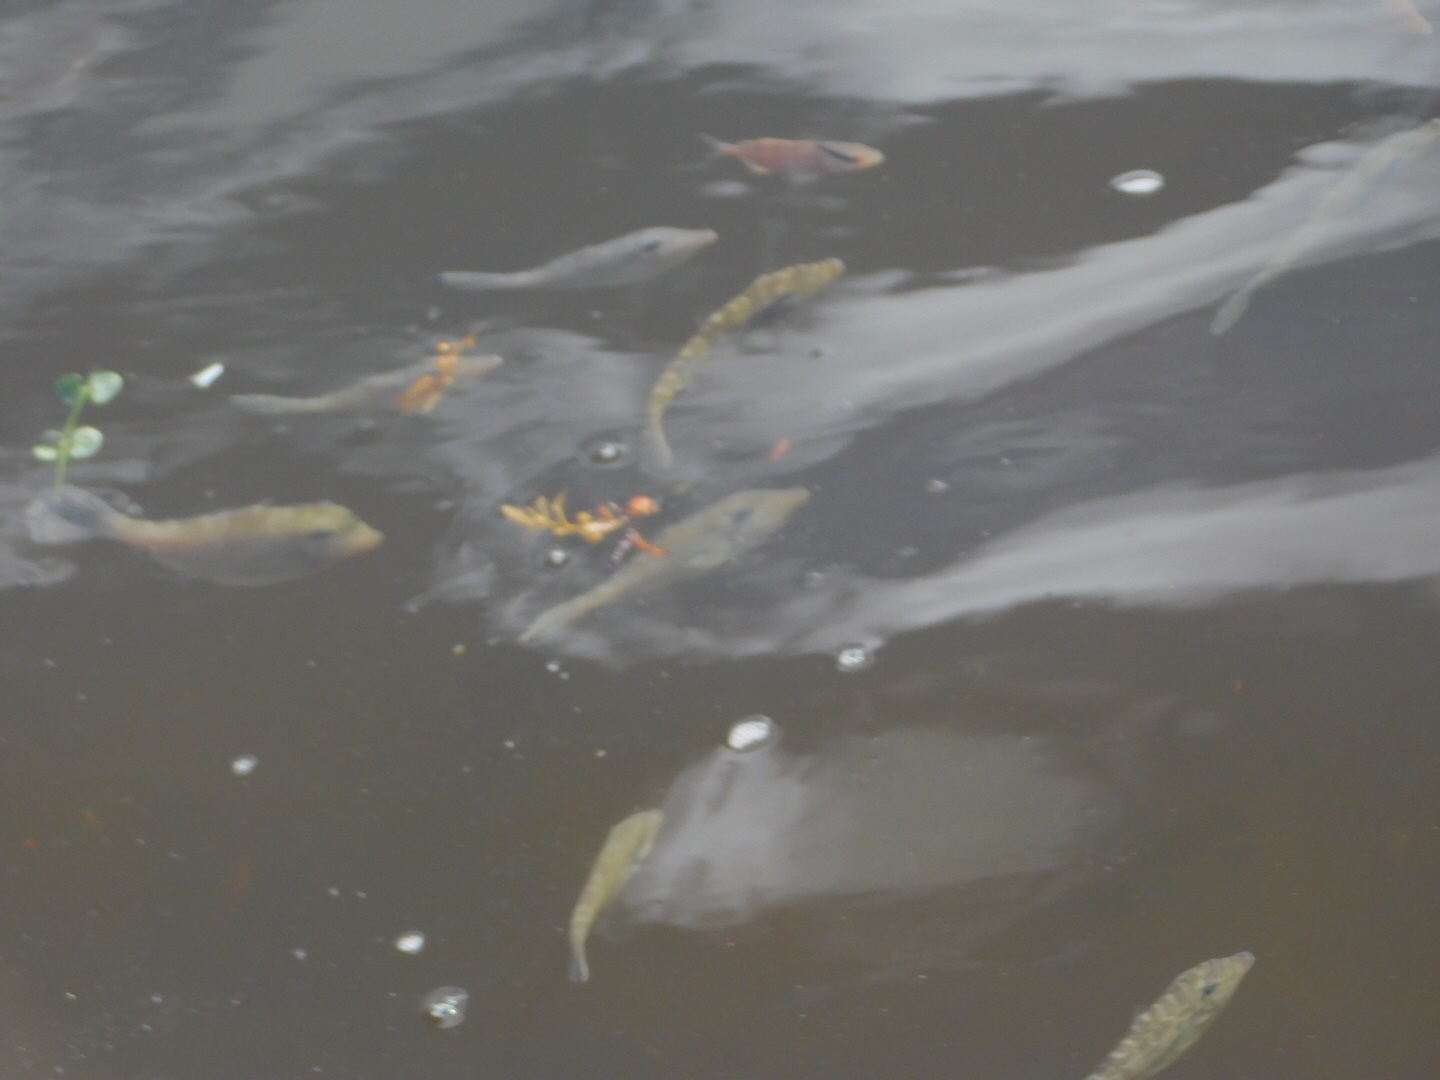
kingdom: Animalia
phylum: Chordata
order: Tetraodontiformes
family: Monacanthidae
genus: Aluterus
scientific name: Aluterus monoceros
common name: Batfish
